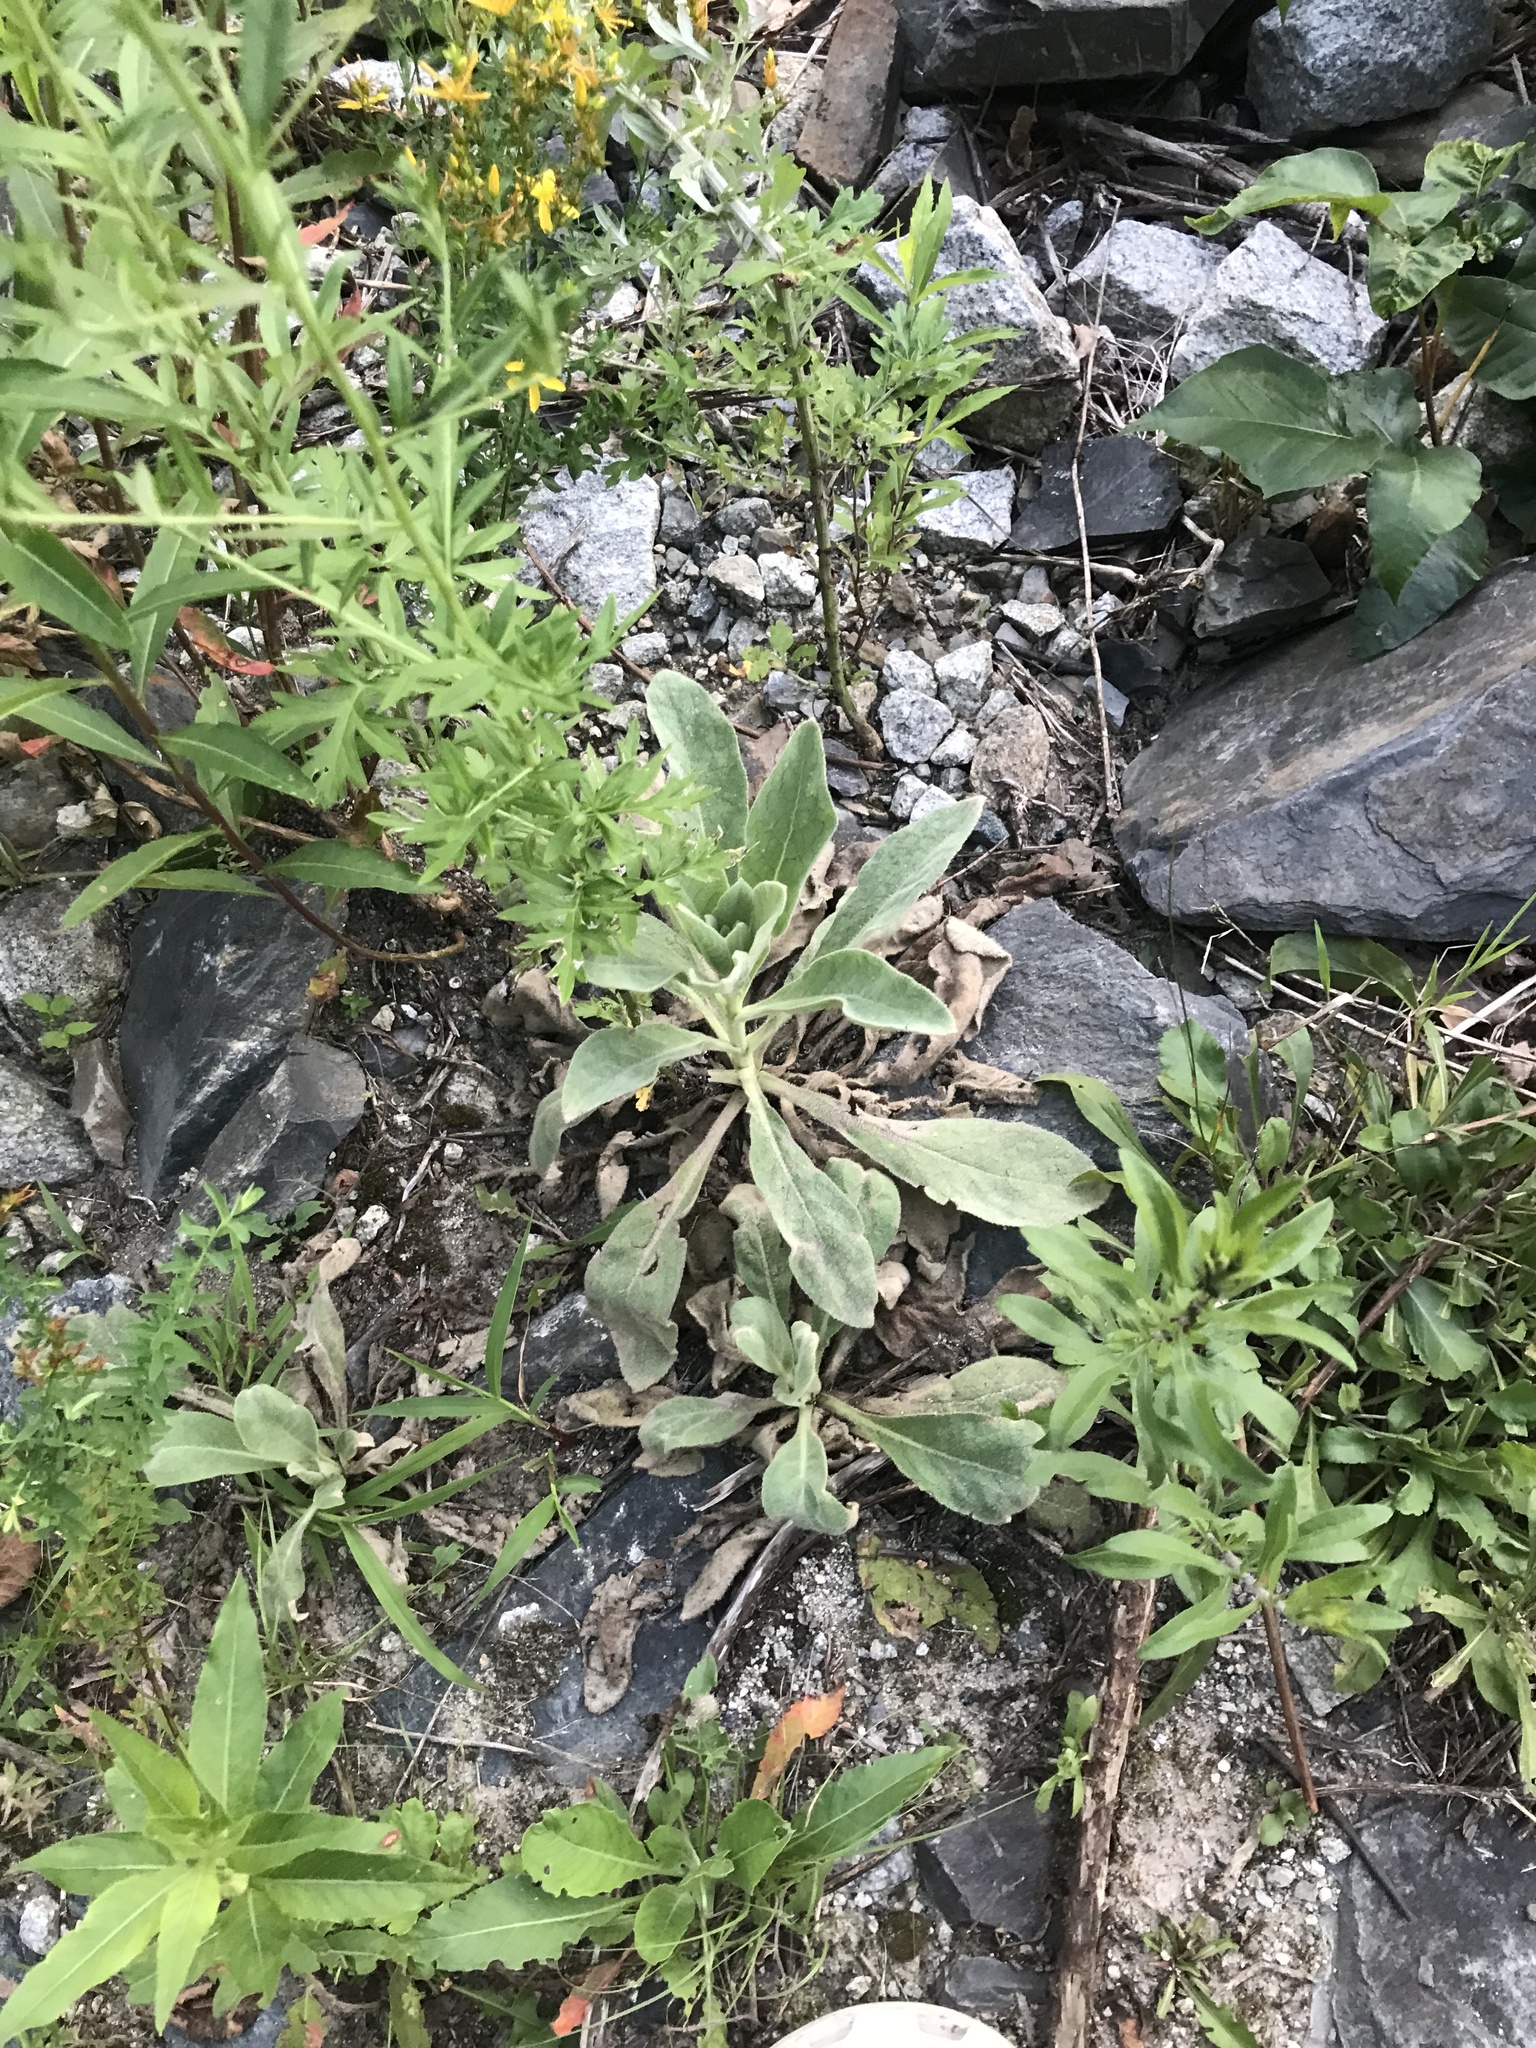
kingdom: Plantae
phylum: Tracheophyta
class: Magnoliopsida
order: Lamiales
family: Scrophulariaceae
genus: Verbascum
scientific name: Verbascum thapsus
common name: Common mullein
